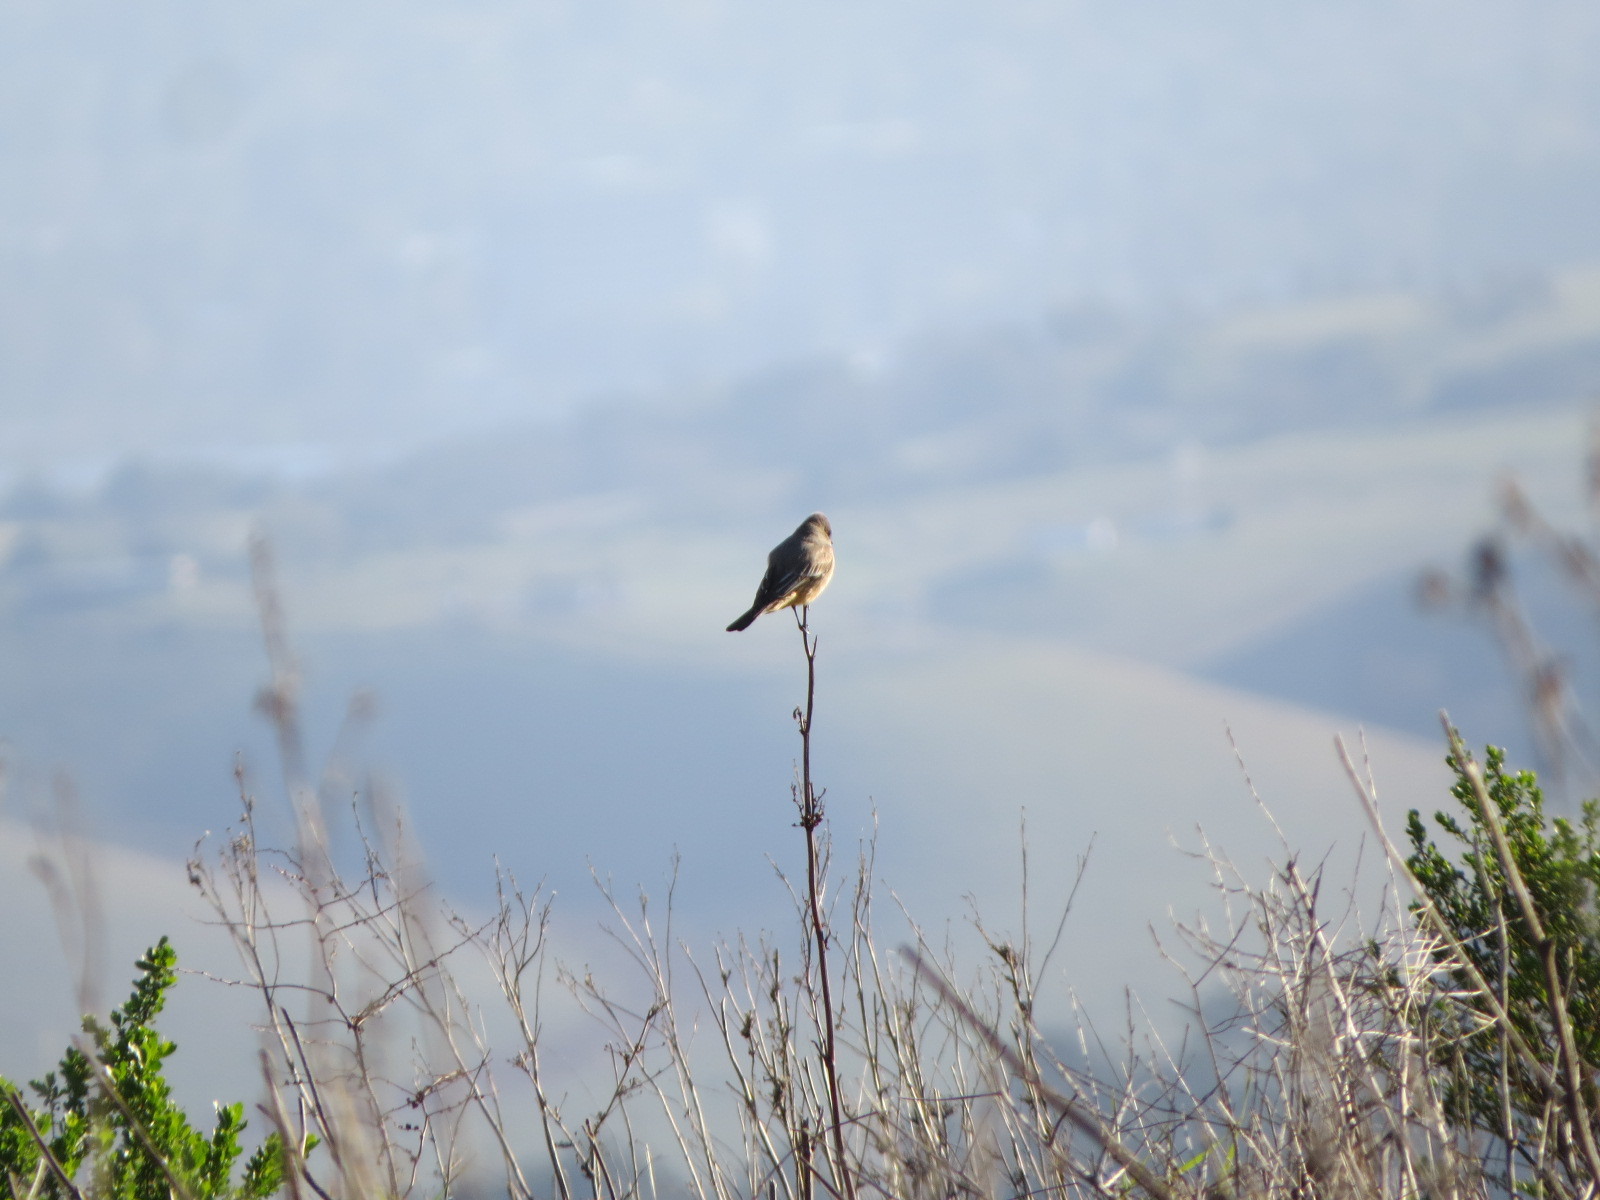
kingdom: Animalia
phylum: Chordata
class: Aves
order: Passeriformes
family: Tyrannidae
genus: Sayornis
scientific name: Sayornis saya
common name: Say's phoebe
